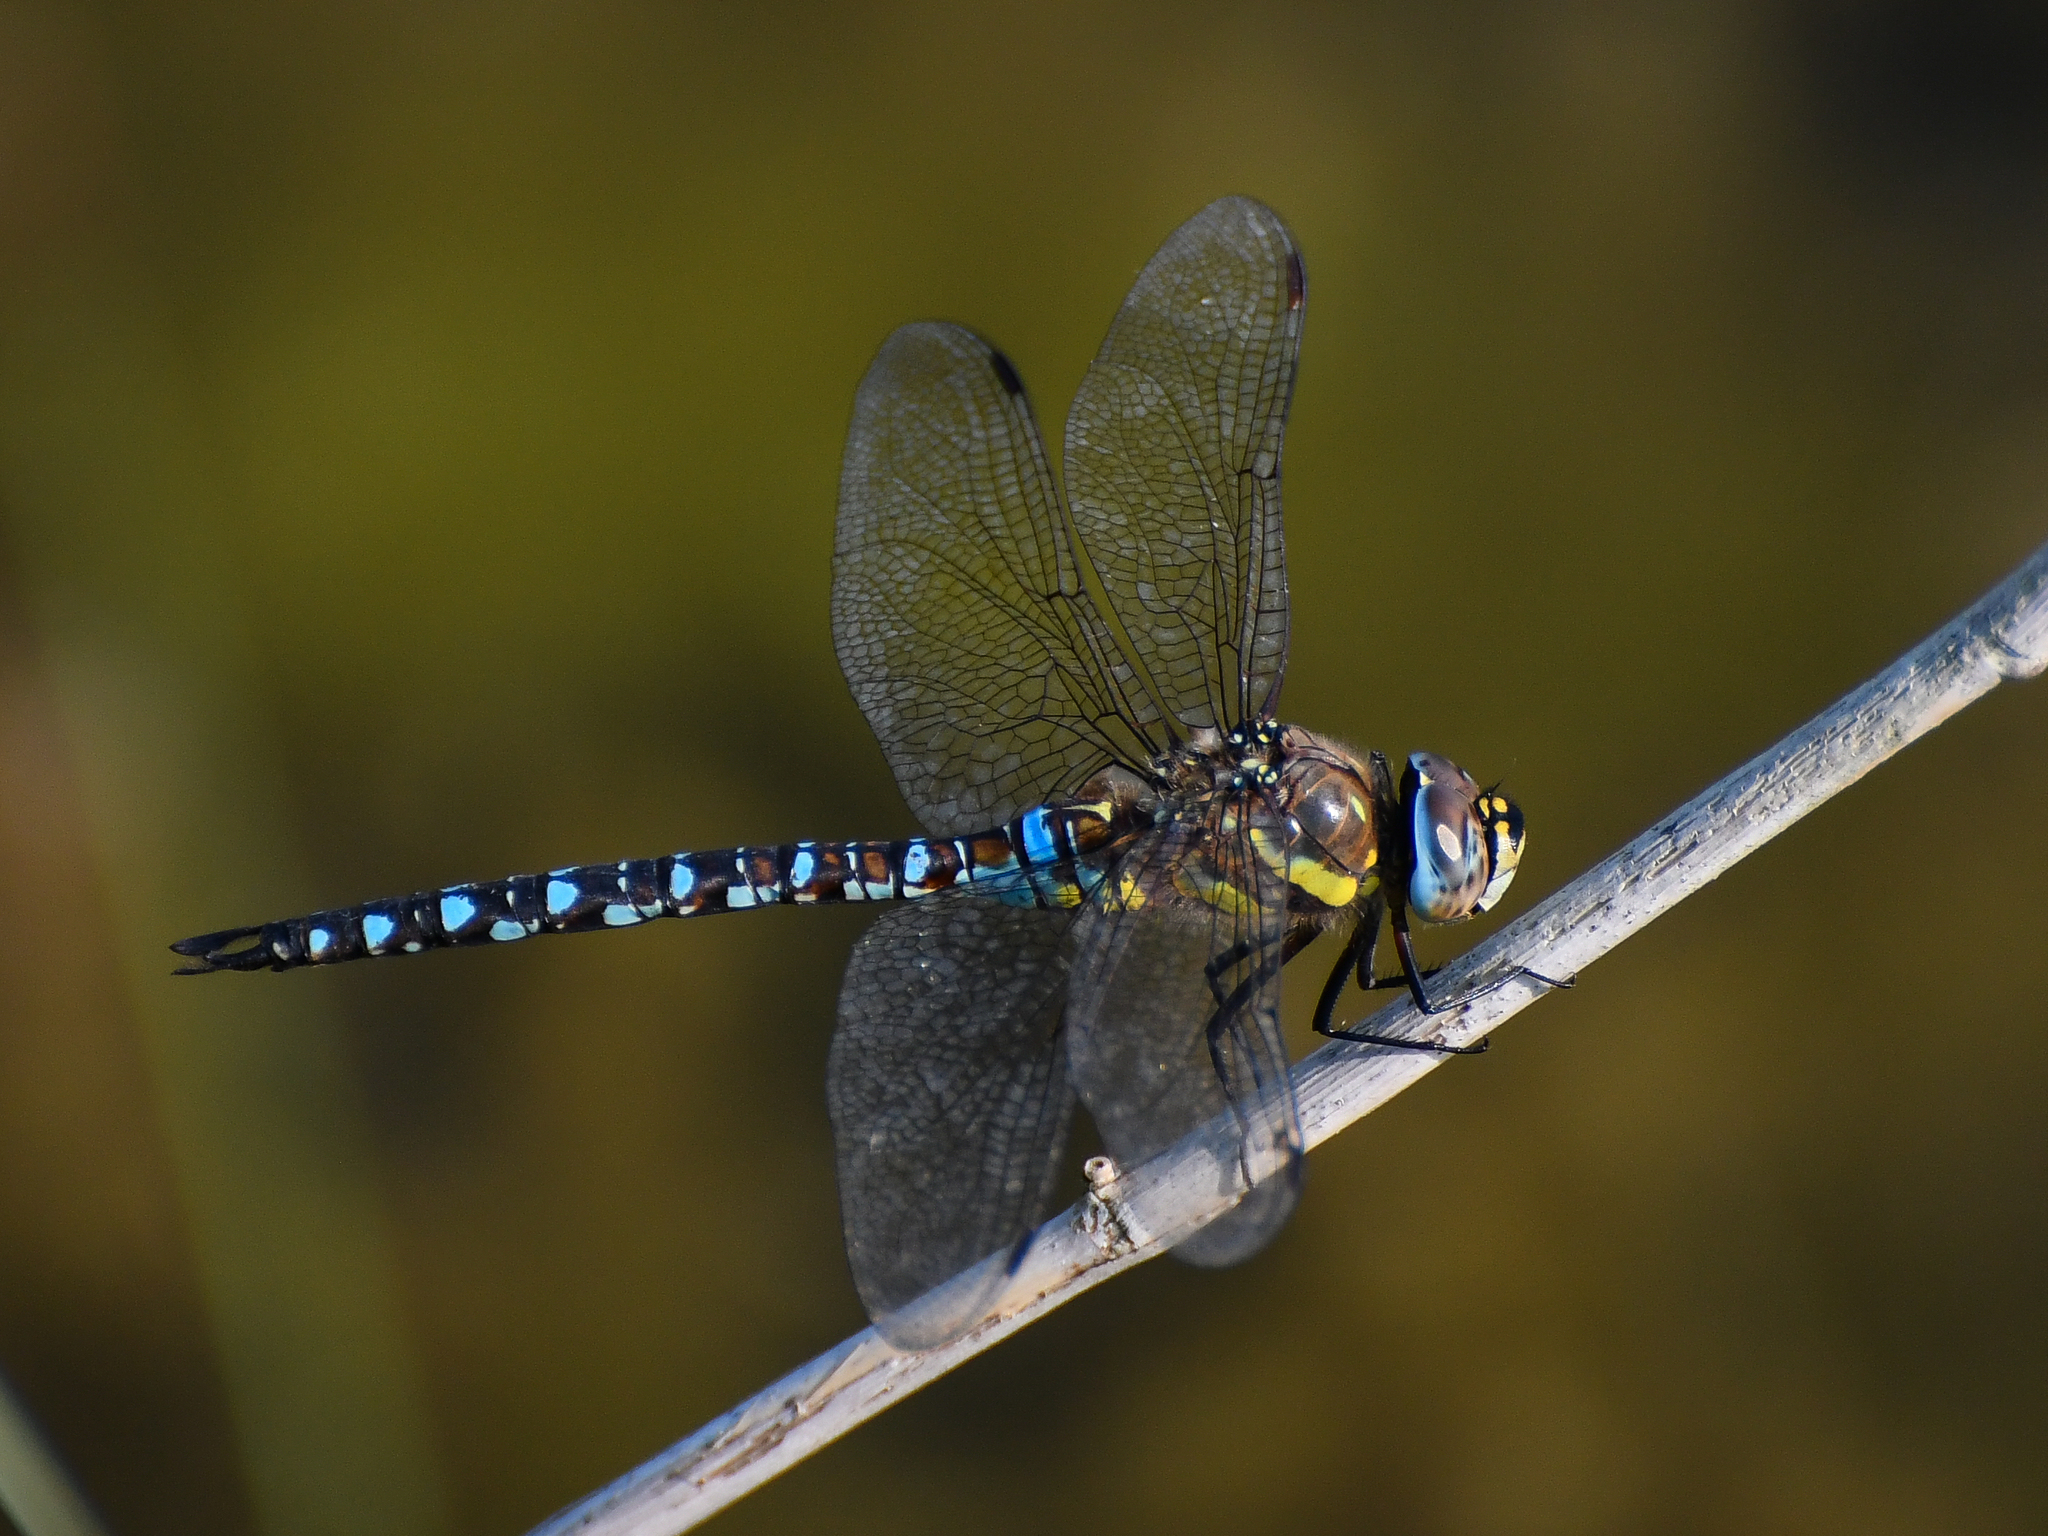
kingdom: Animalia
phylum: Arthropoda
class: Insecta
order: Odonata
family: Aeshnidae
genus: Aeshna
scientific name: Aeshna mixta
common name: Migrant hawker
